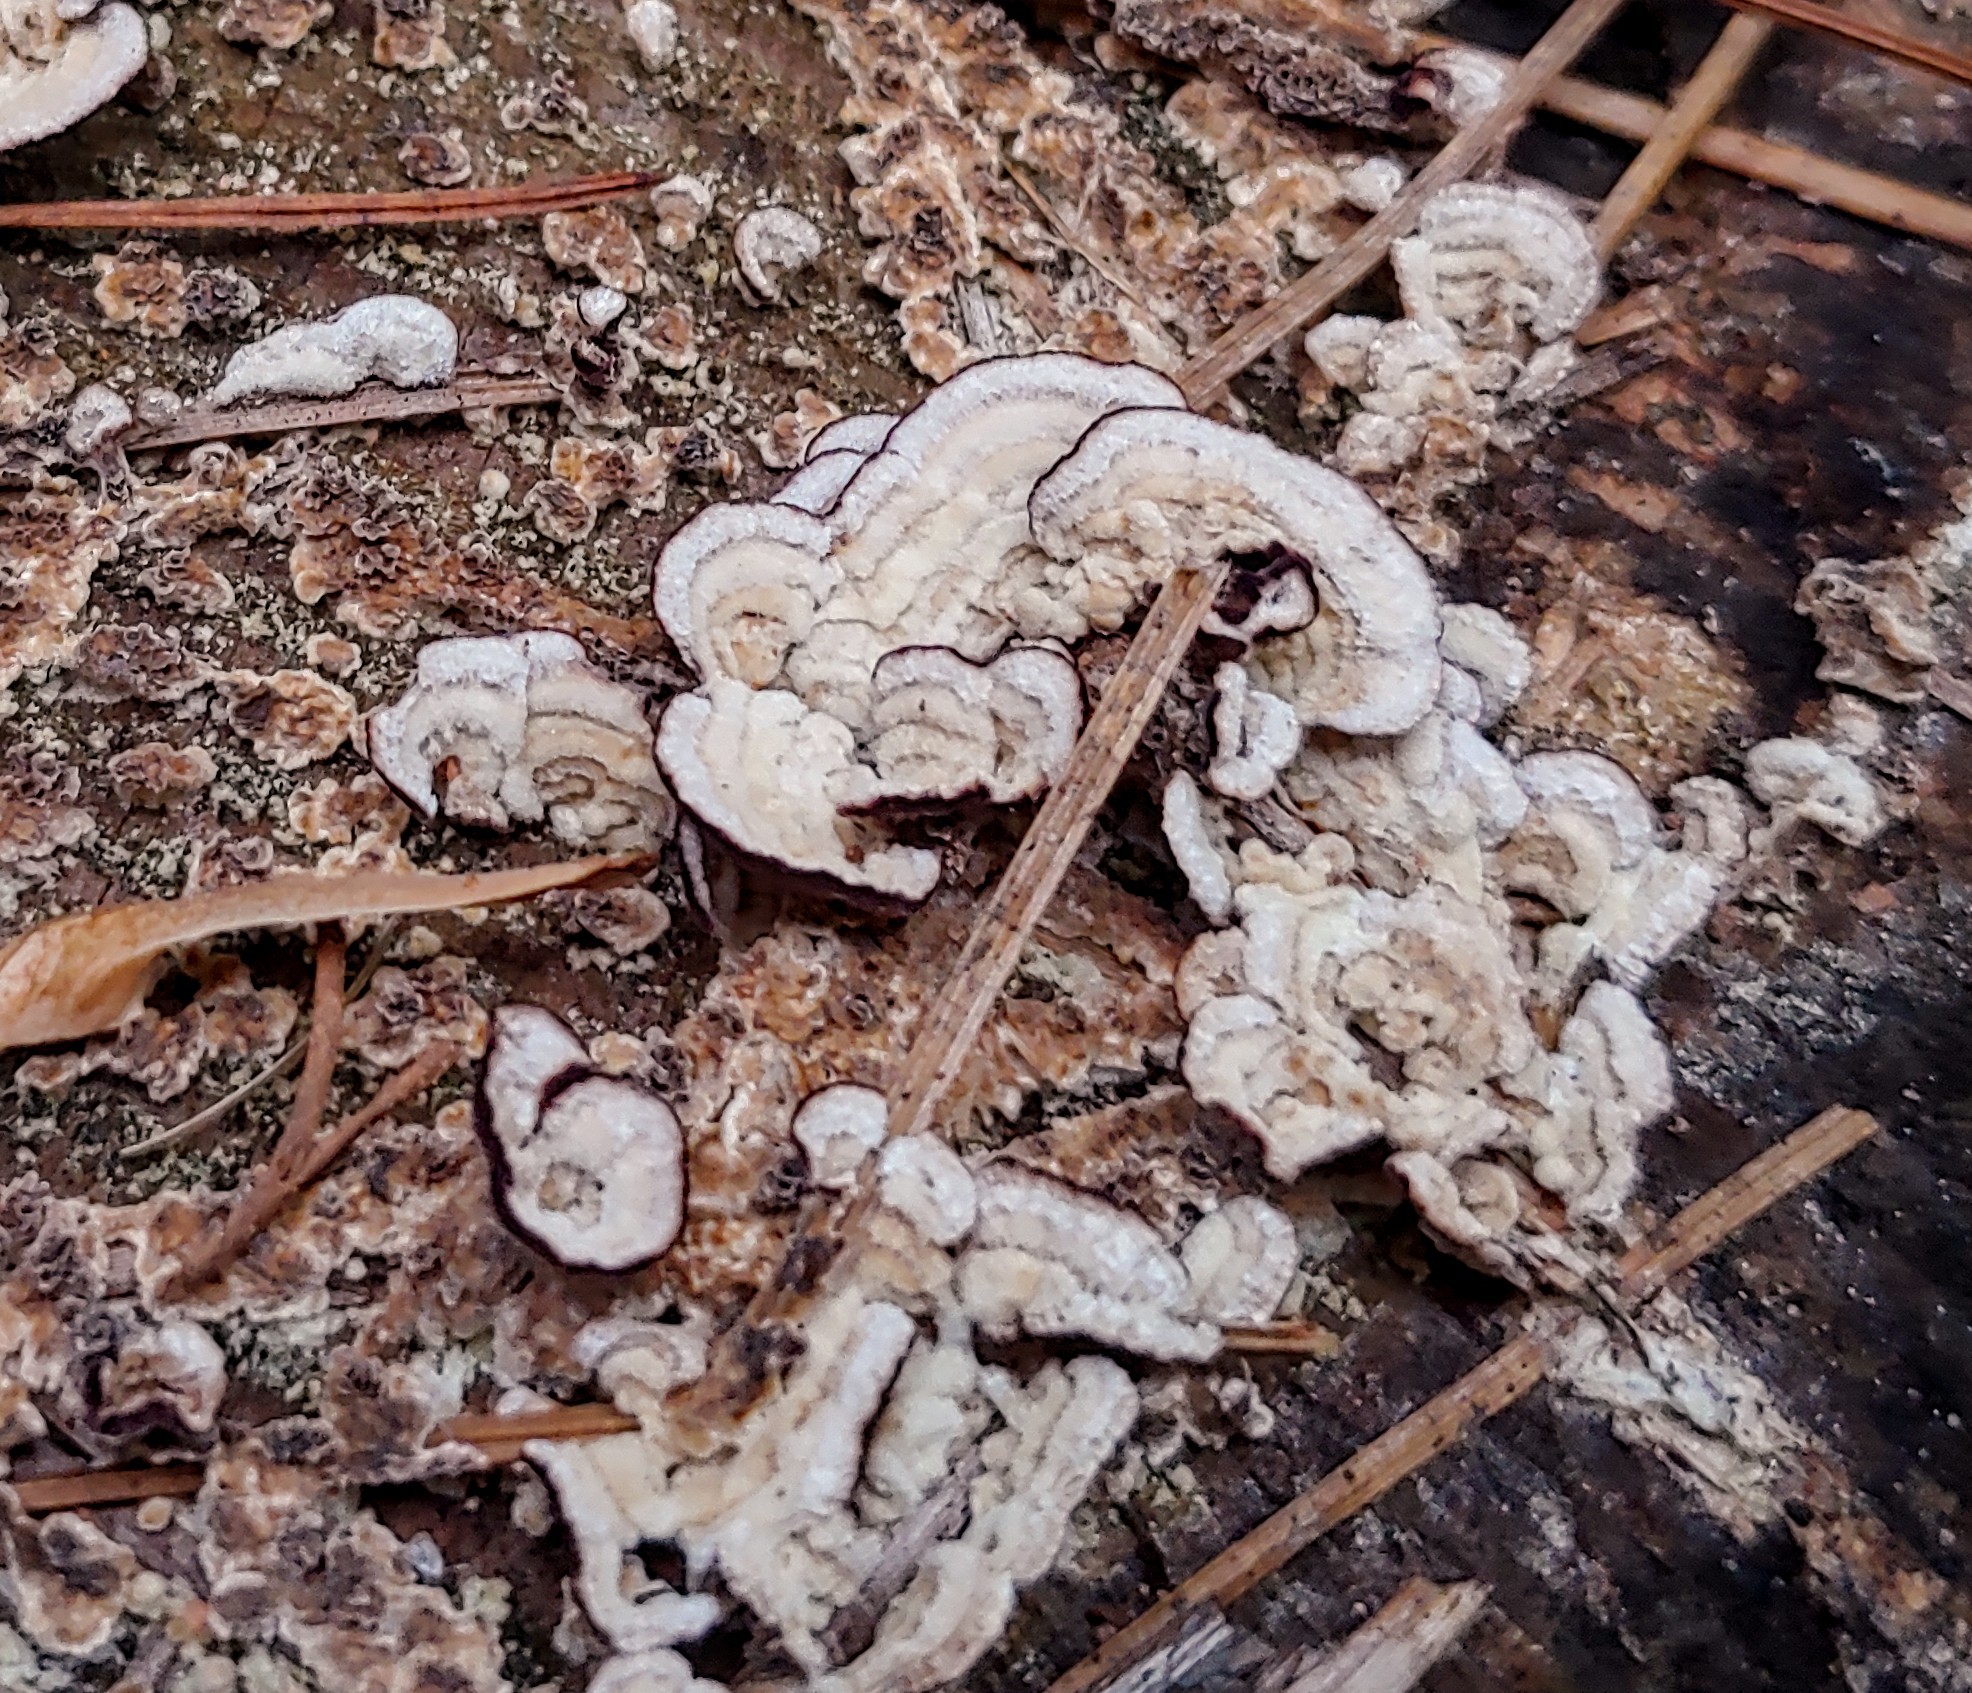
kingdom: Fungi
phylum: Basidiomycota
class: Agaricomycetes
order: Hymenochaetales
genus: Trichaptum
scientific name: Trichaptum abietinum
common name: Purplepore bracket
